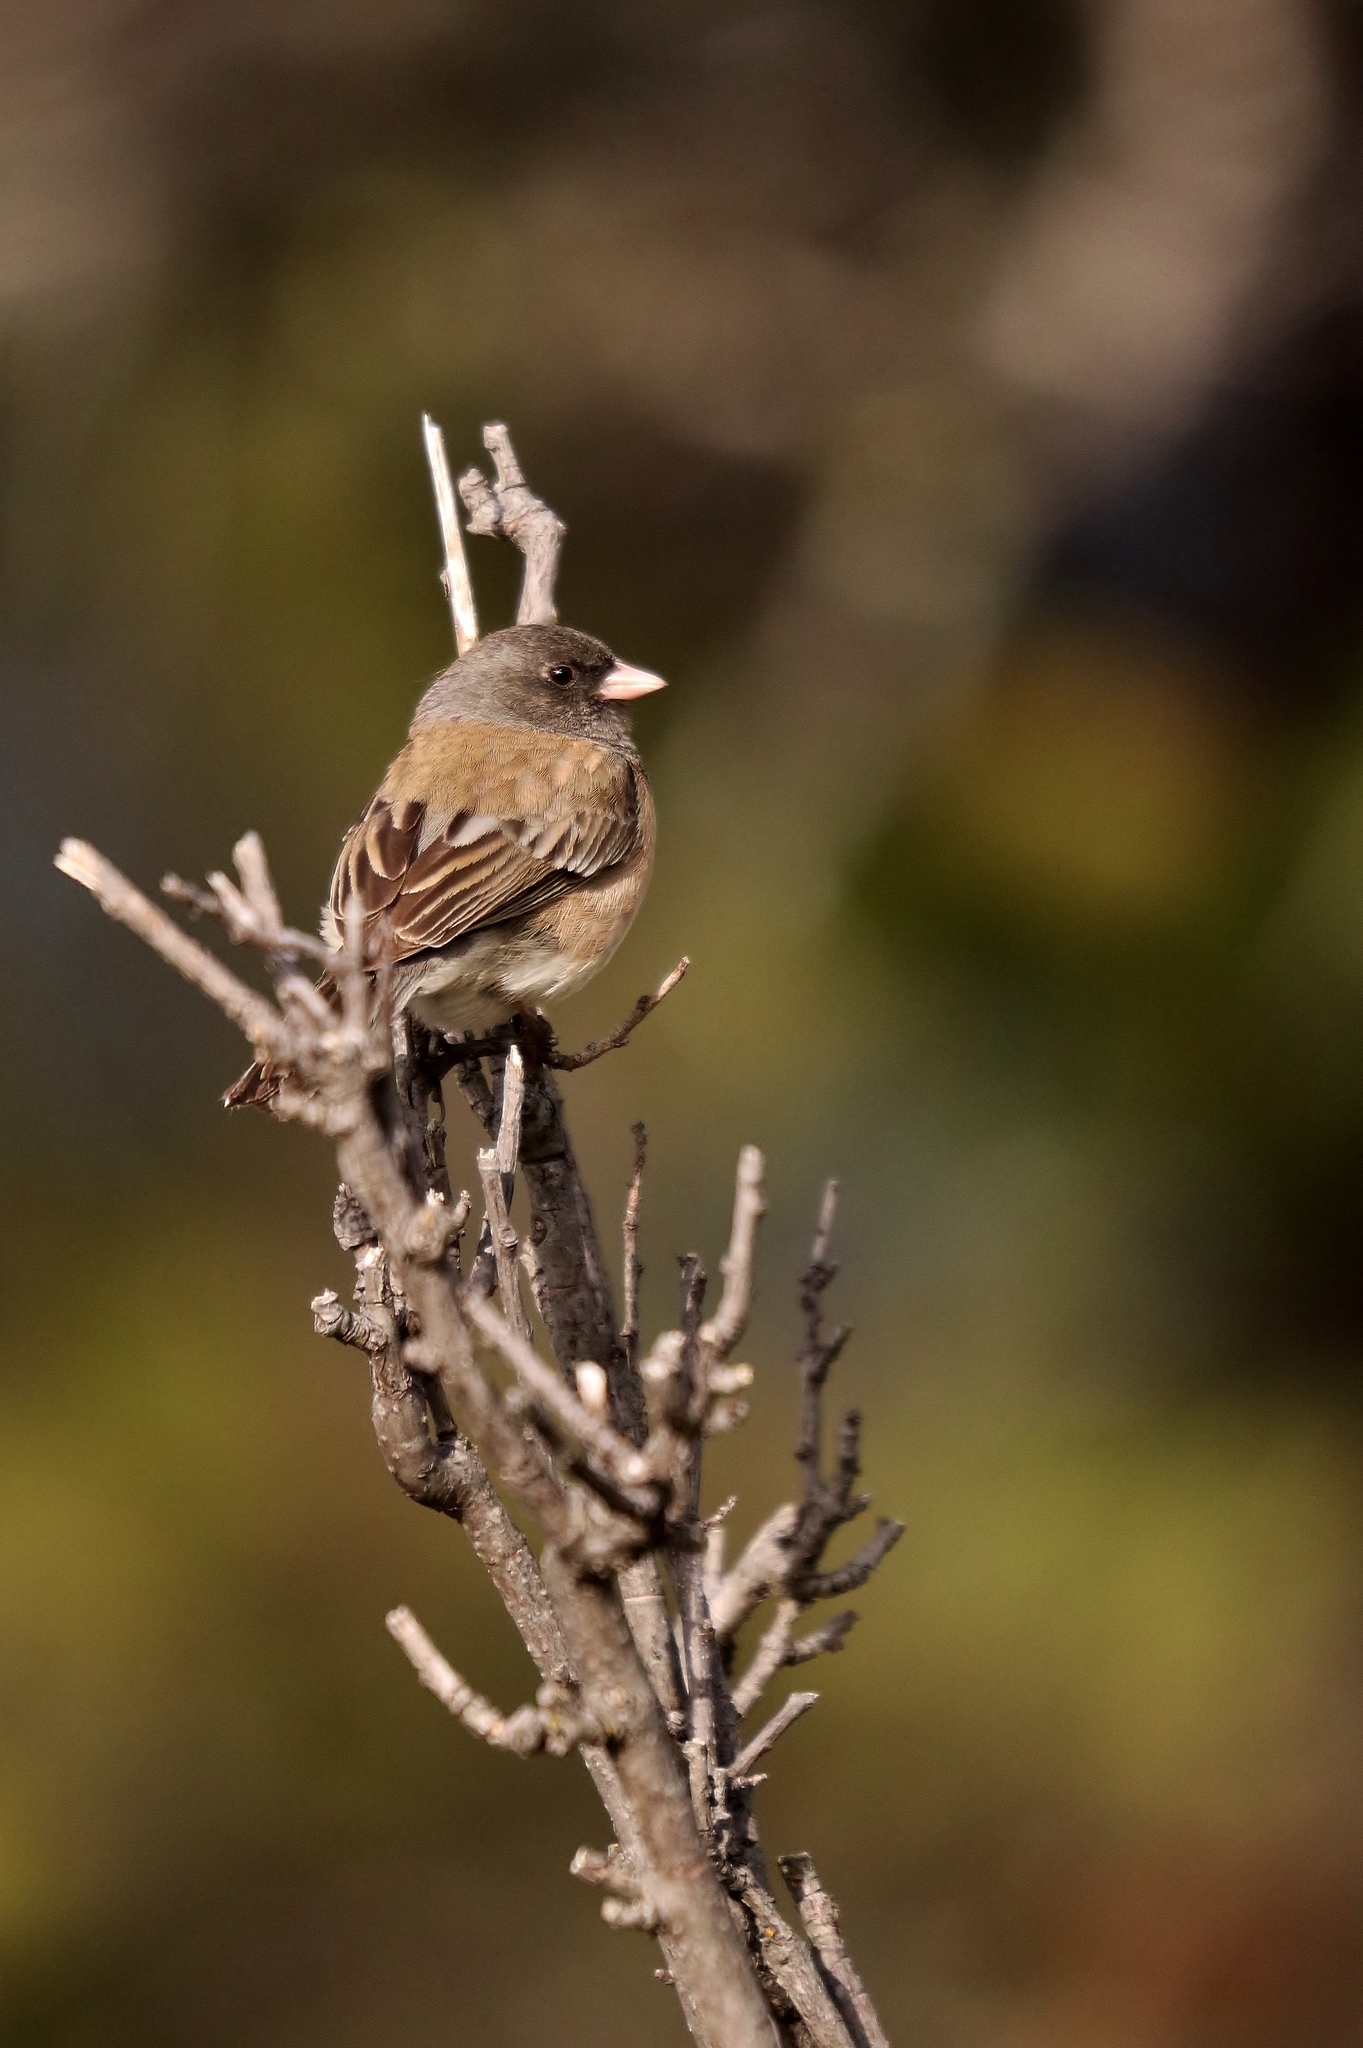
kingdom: Animalia
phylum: Chordata
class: Aves
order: Passeriformes
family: Passerellidae
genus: Junco
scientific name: Junco hyemalis
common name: Dark-eyed junco
